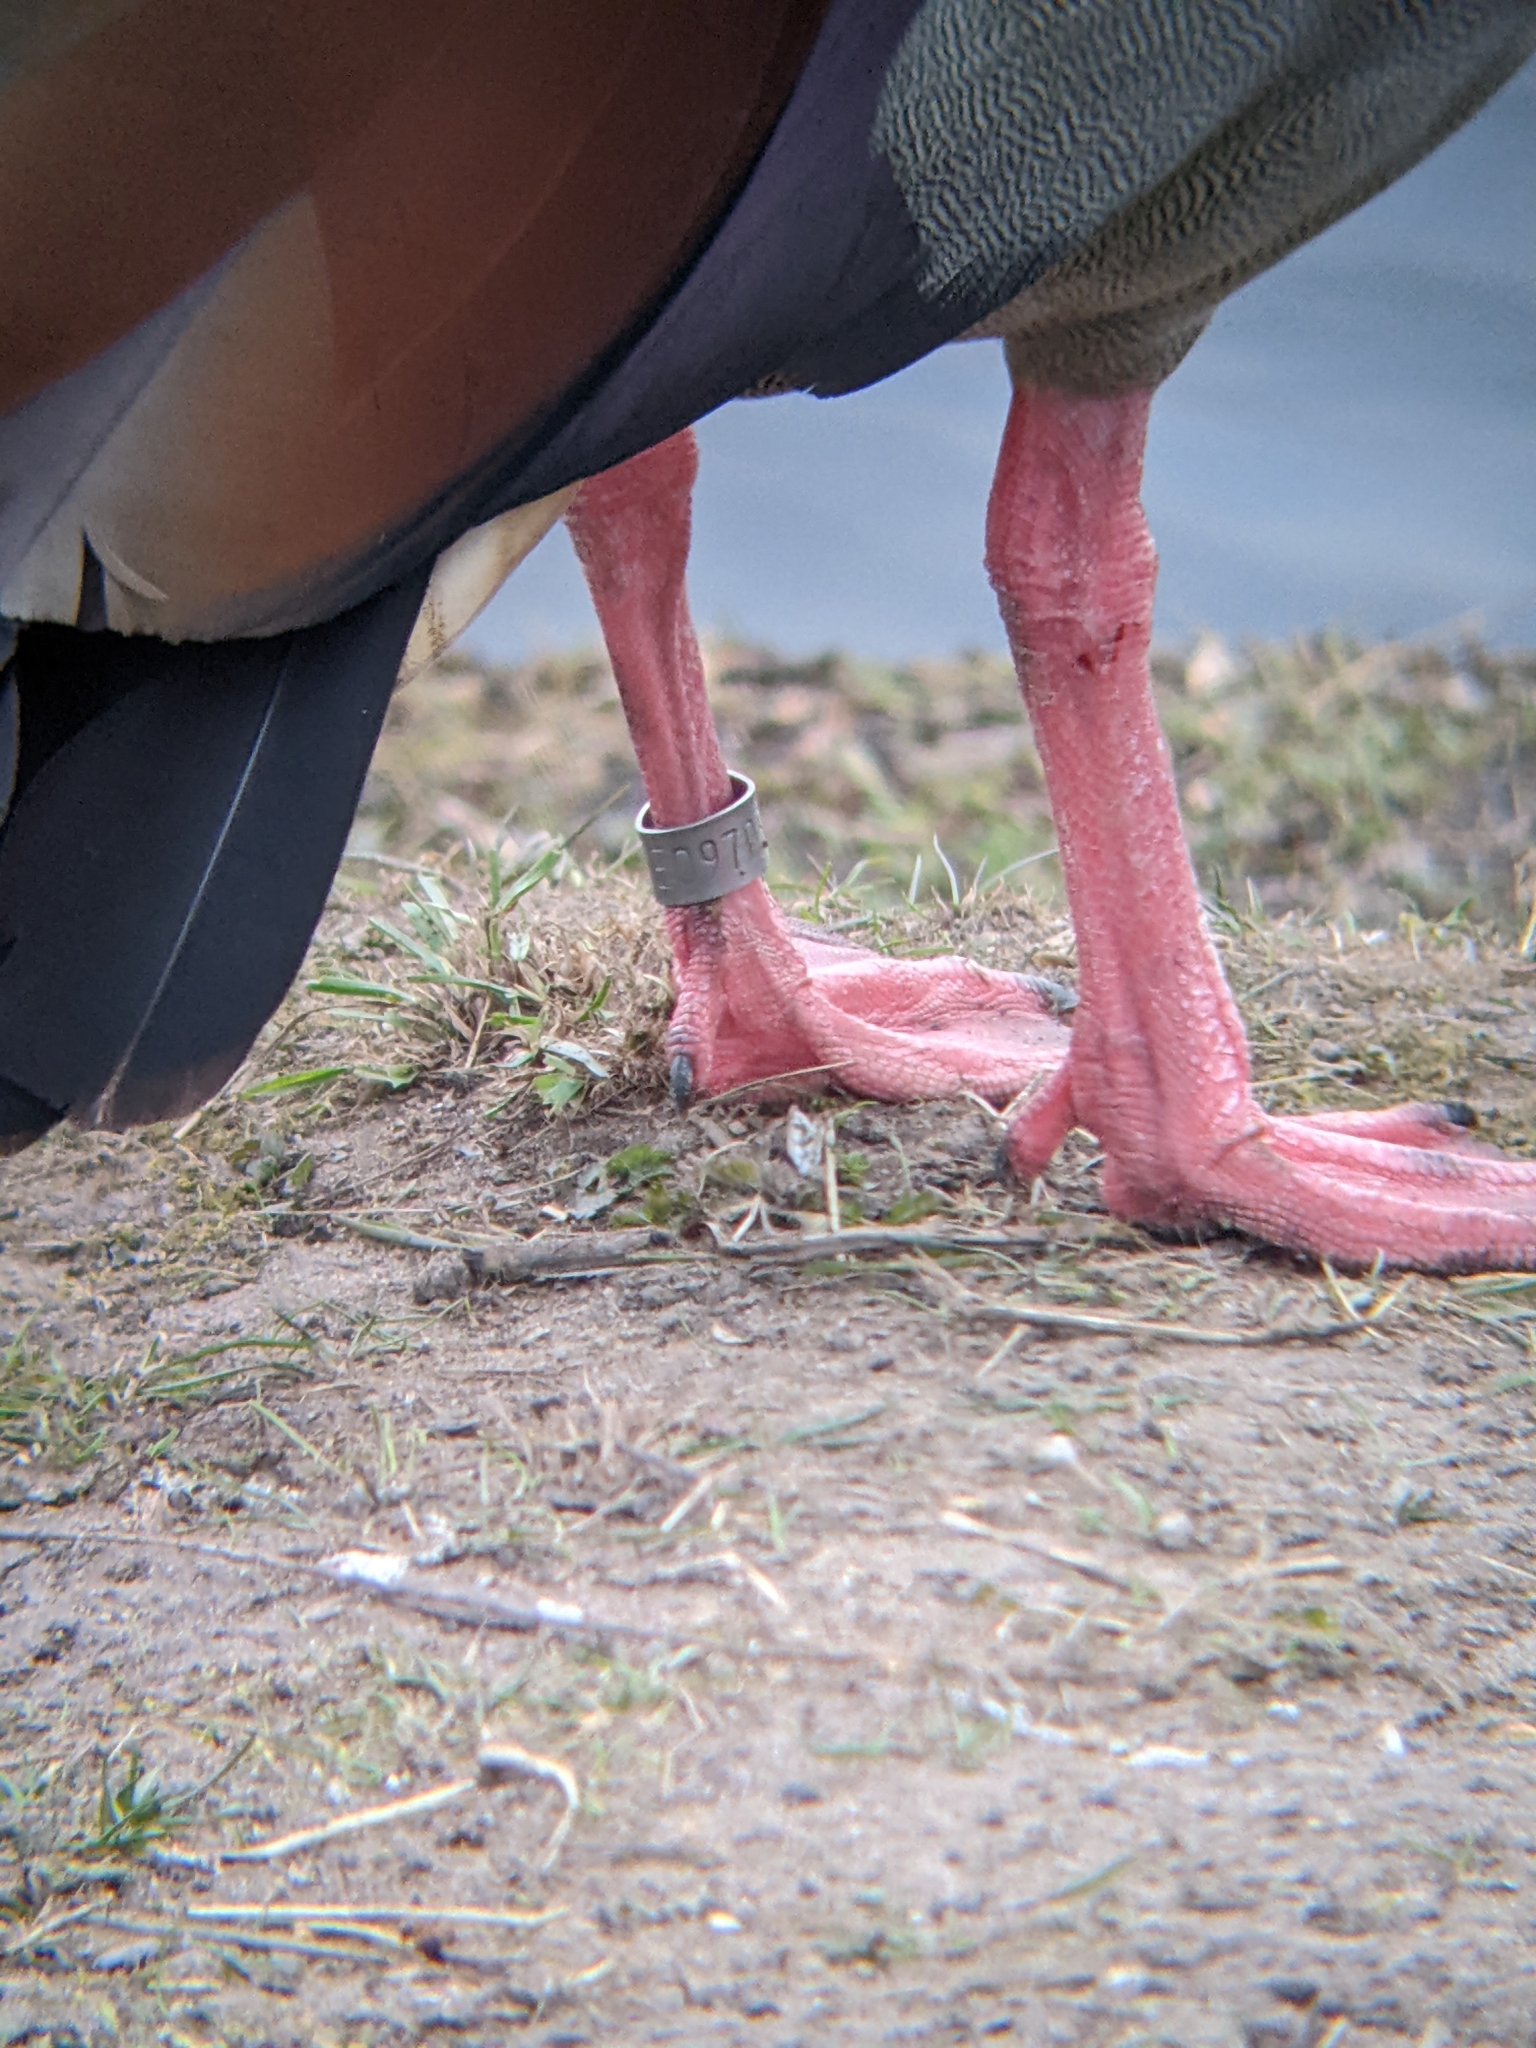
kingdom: Animalia
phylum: Chordata
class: Aves
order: Anseriformes
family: Anatidae
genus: Alopochen
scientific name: Alopochen aegyptiaca
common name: Egyptian goose
